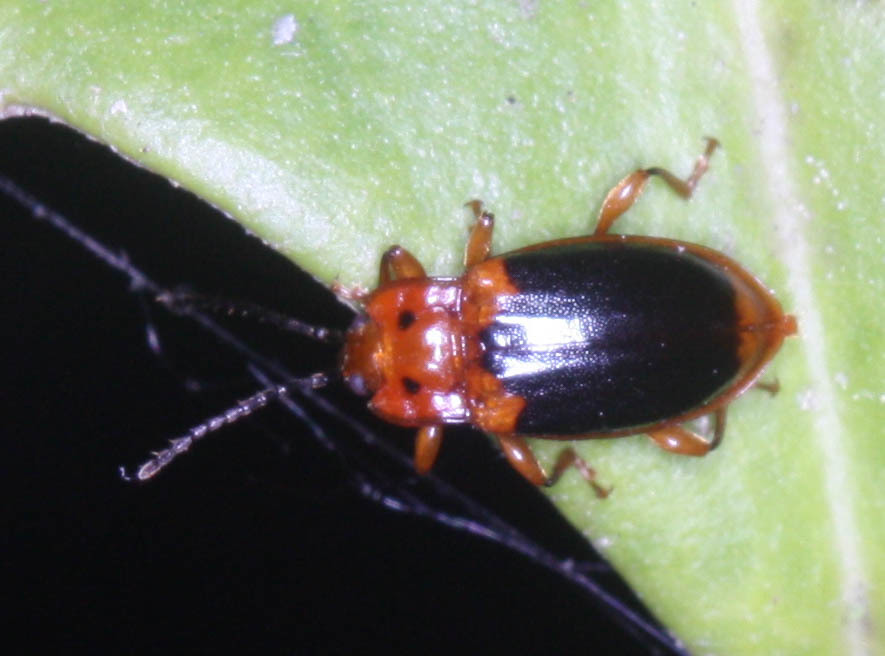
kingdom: Animalia
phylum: Arthropoda
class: Insecta
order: Coleoptera
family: Endomychidae
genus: Aphorista
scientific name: Aphorista laeta
